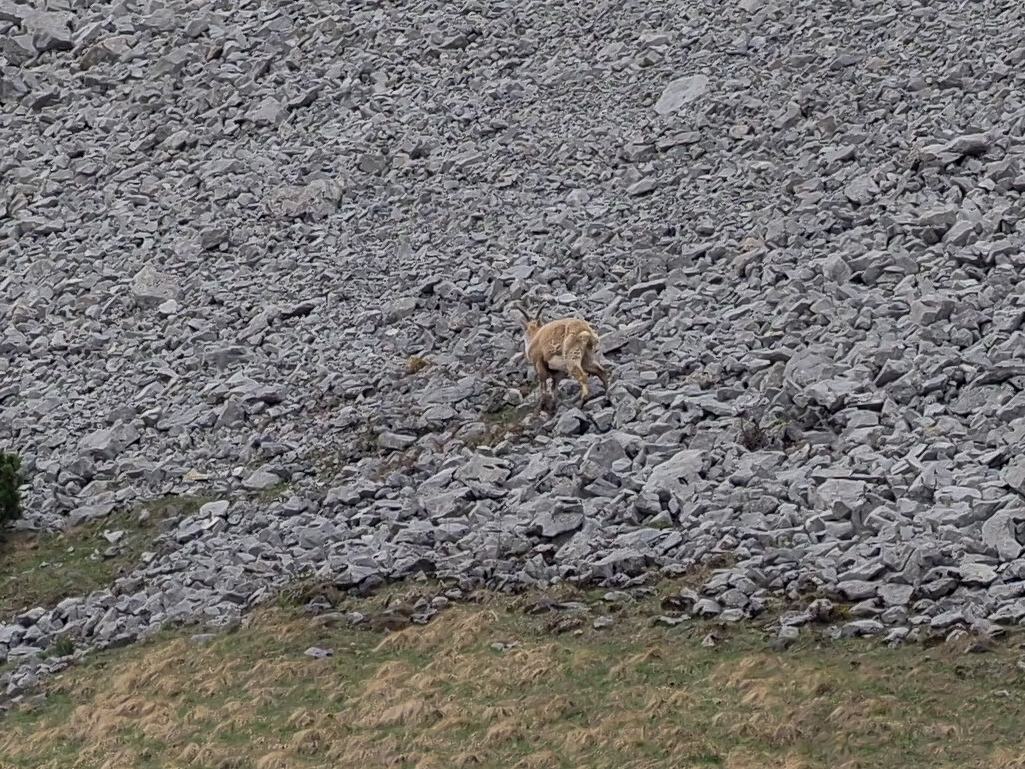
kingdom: Animalia
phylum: Chordata
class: Mammalia
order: Artiodactyla
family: Bovidae
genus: Capra
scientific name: Capra ibex
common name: Alpine ibex
